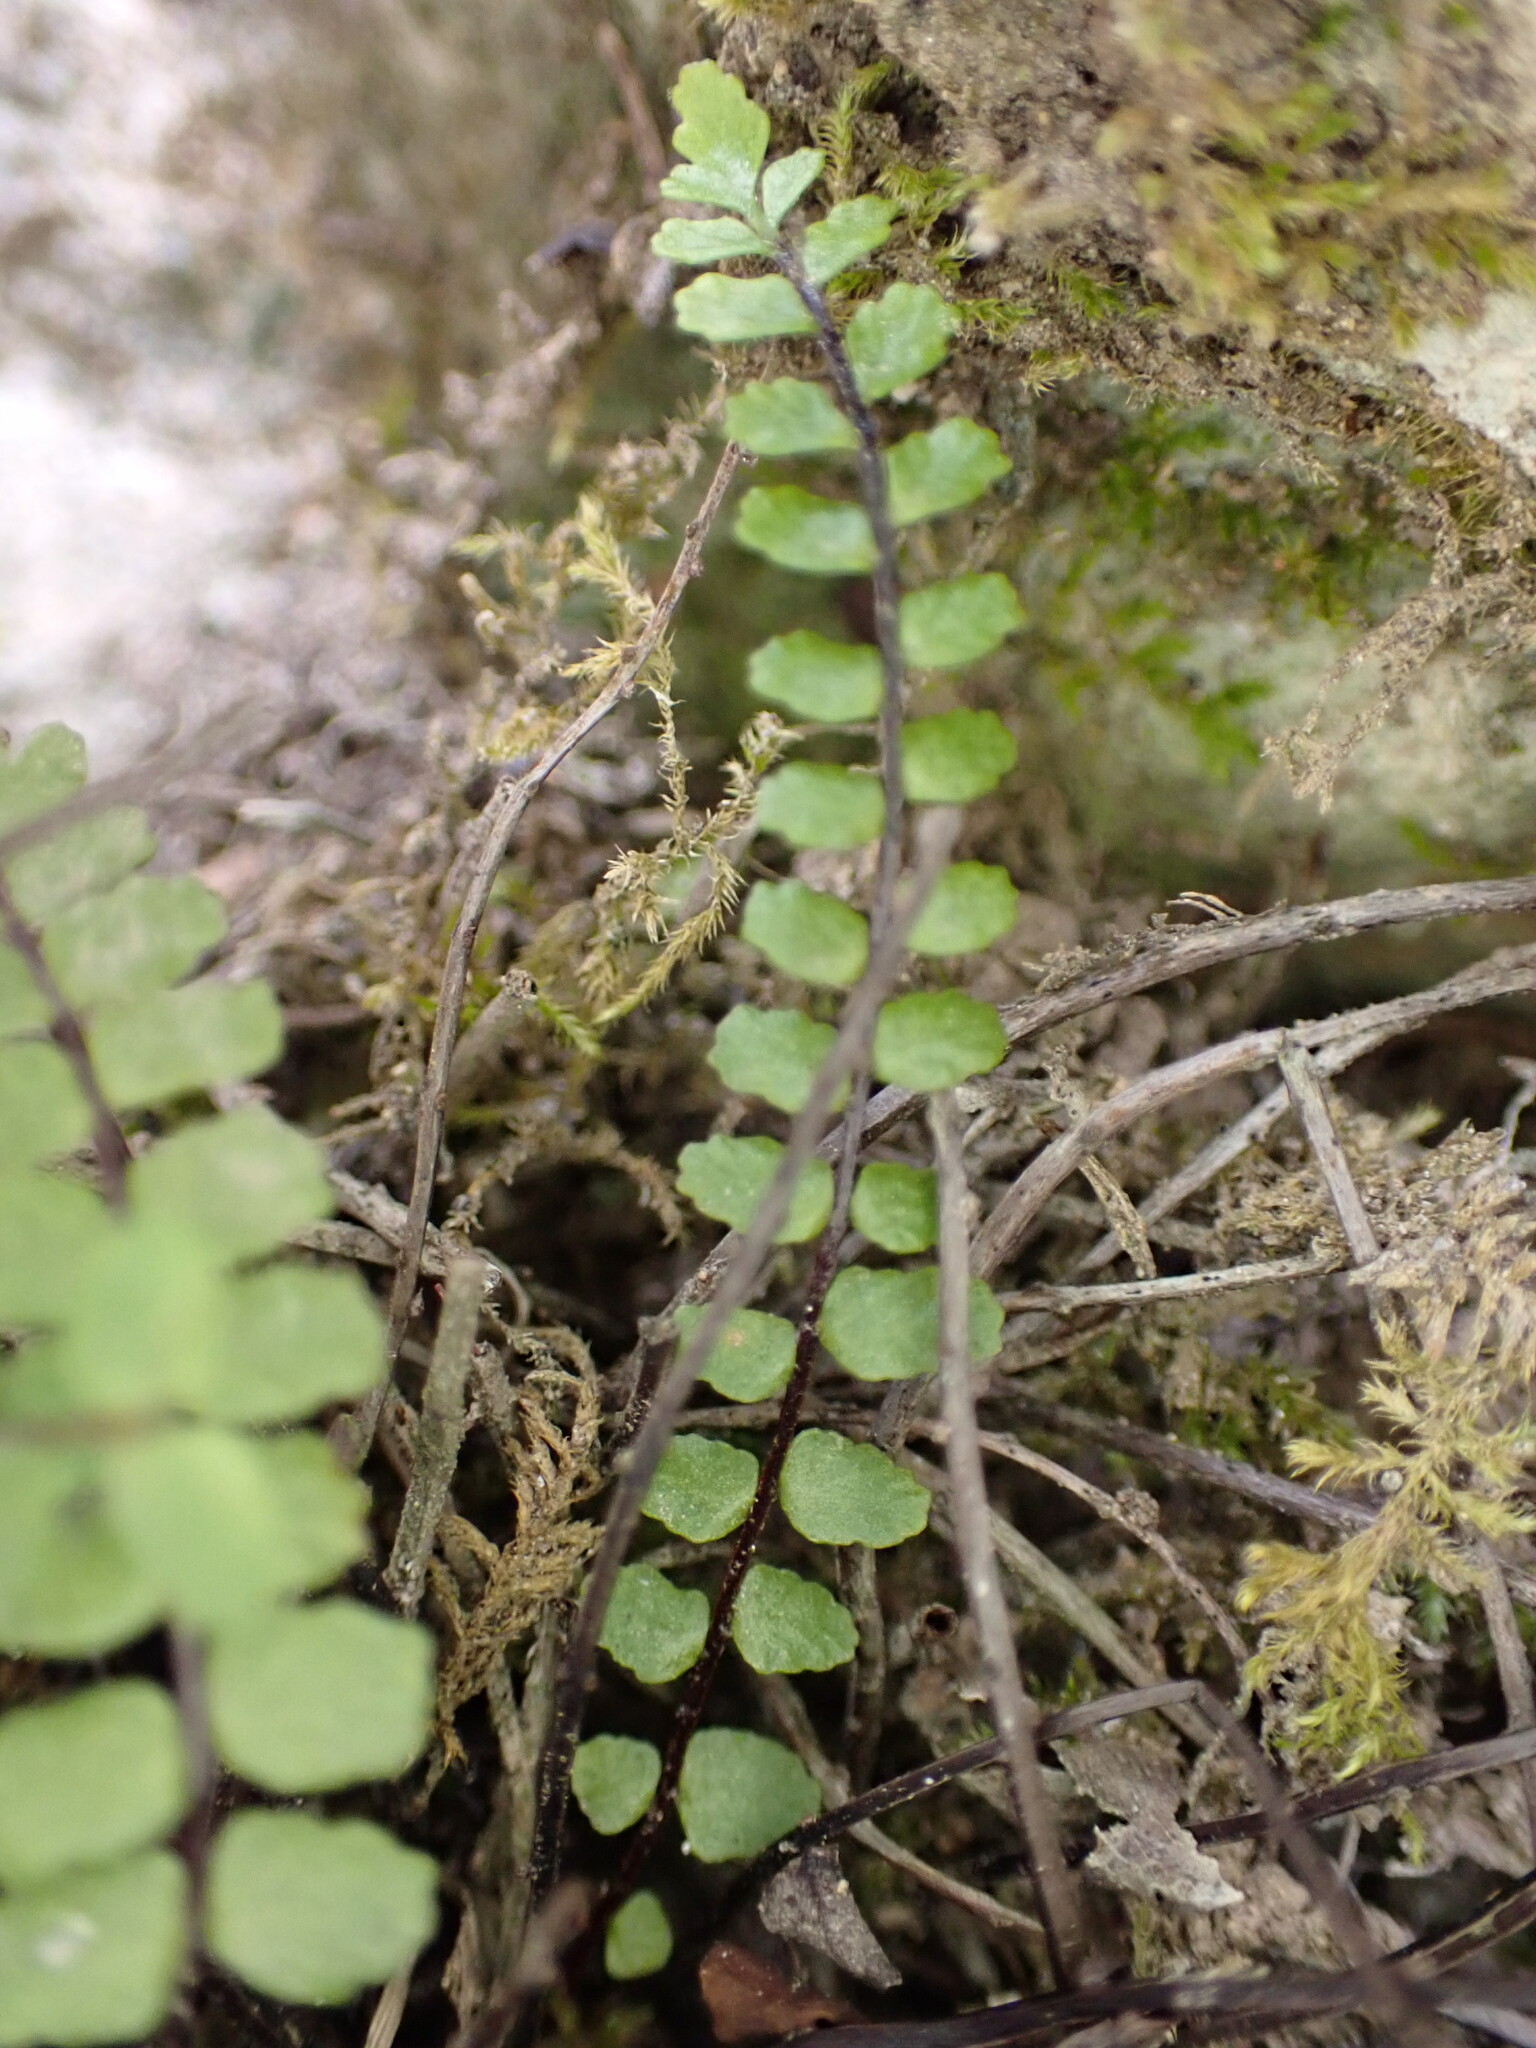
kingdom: Plantae
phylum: Tracheophyta
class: Polypodiopsida
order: Polypodiales
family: Aspleniaceae
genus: Asplenium
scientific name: Asplenium trichomanes
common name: Maidenhair spleenwort
